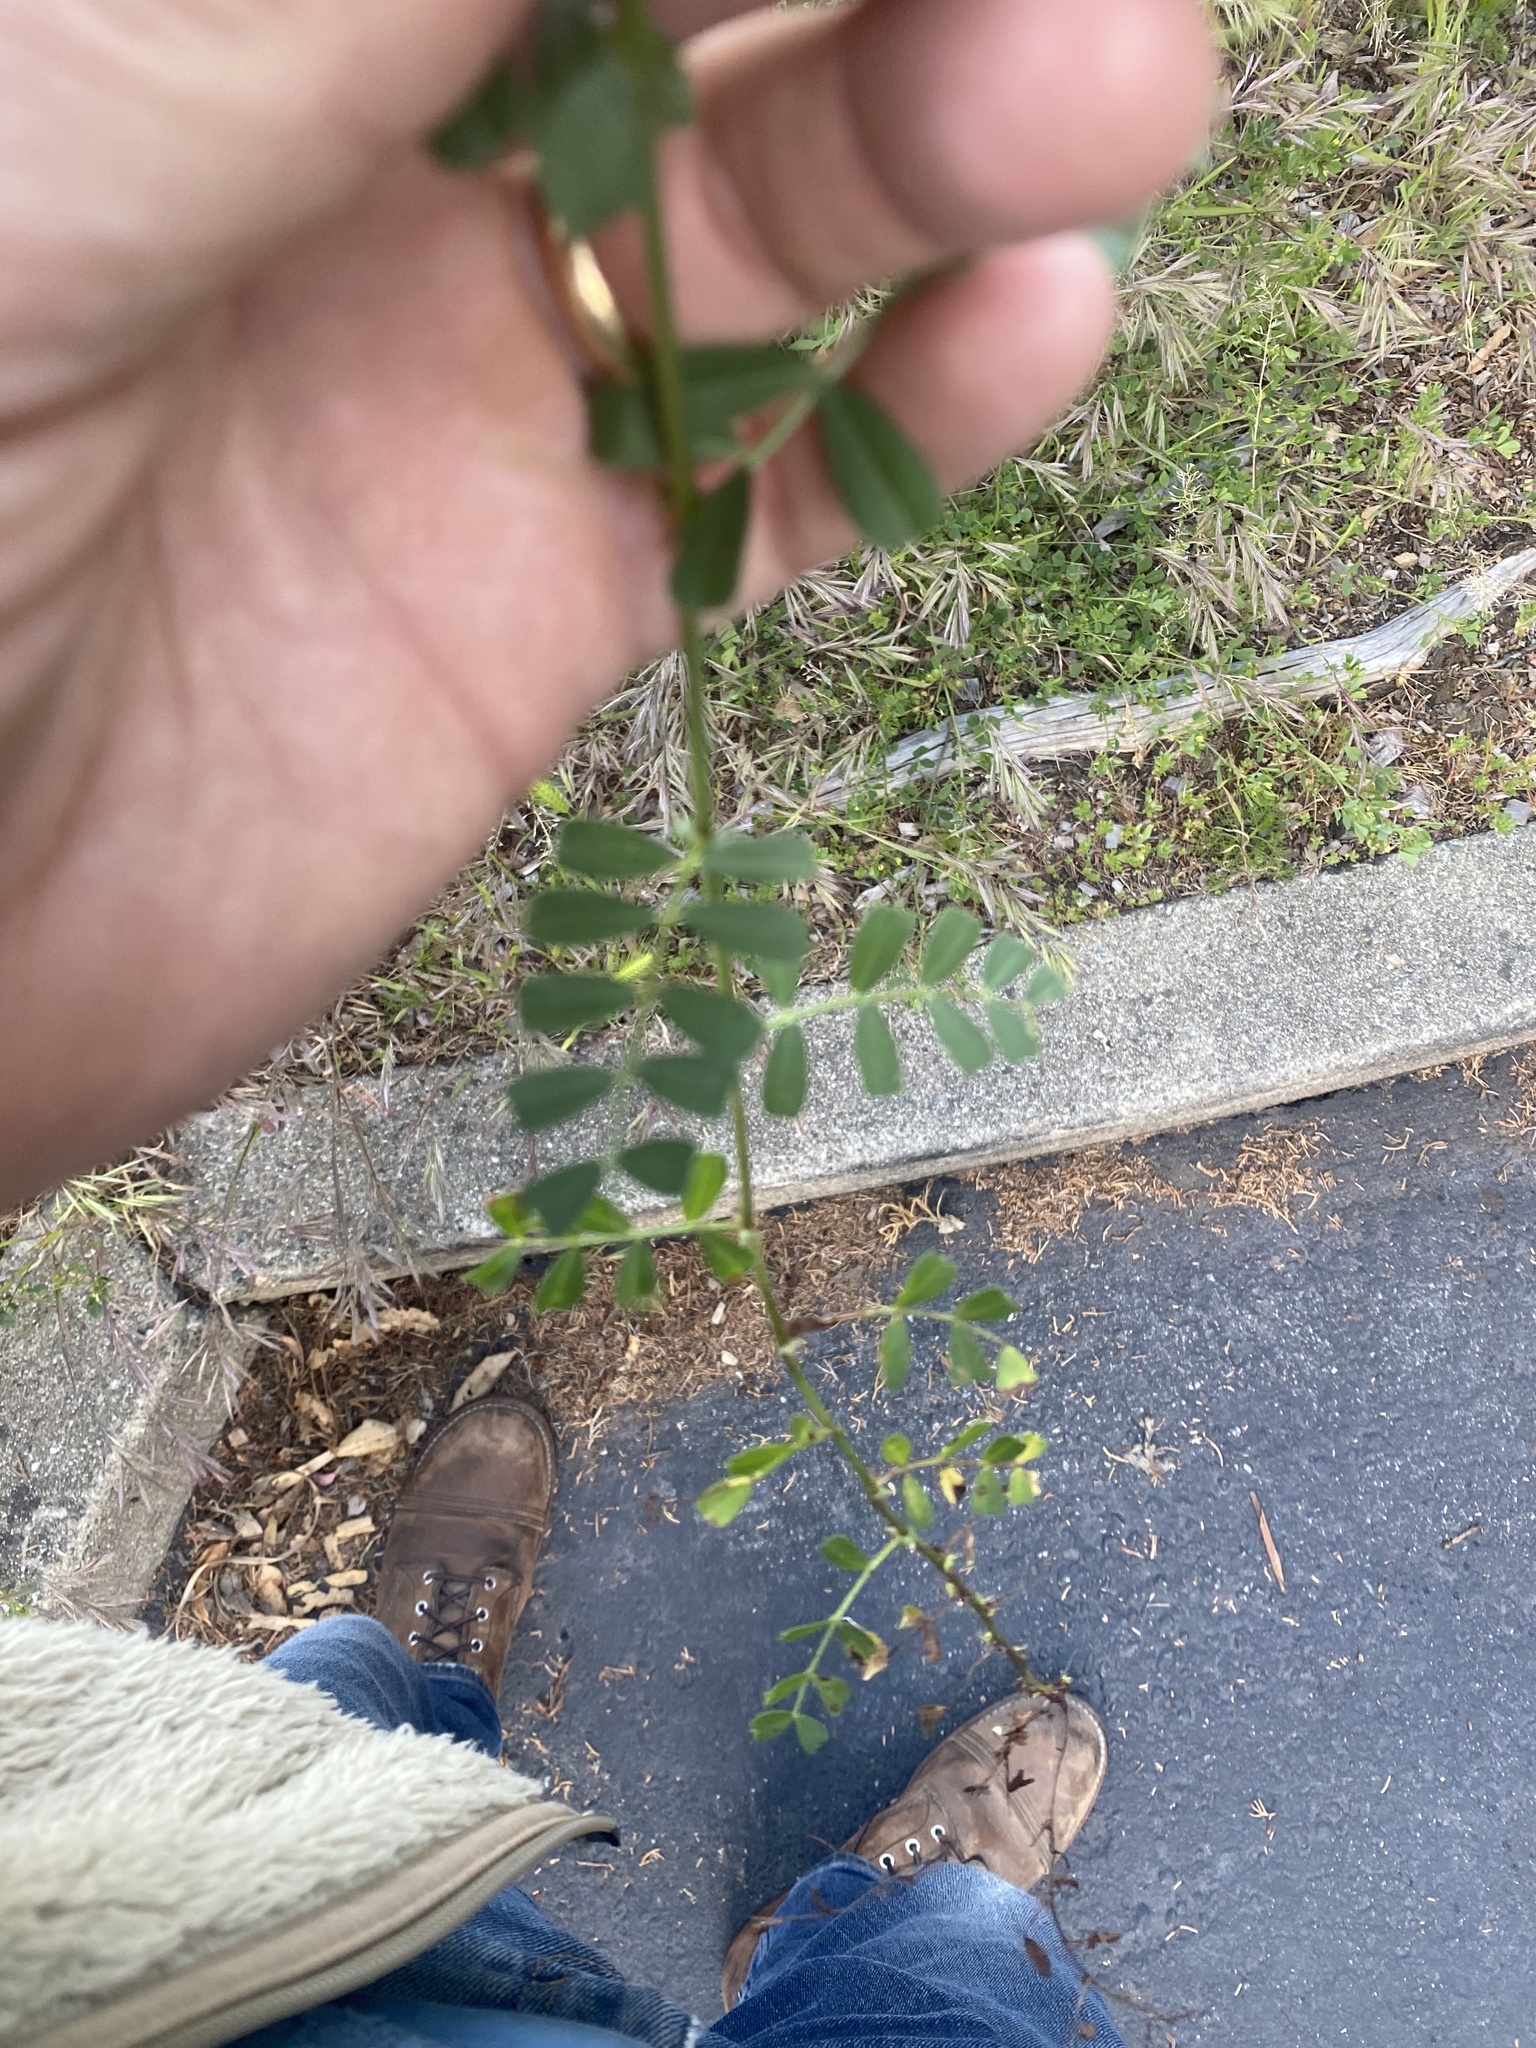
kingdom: Plantae
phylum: Tracheophyta
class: Magnoliopsida
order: Fabales
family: Fabaceae
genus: Vicia
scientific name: Vicia sativa
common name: Garden vetch
